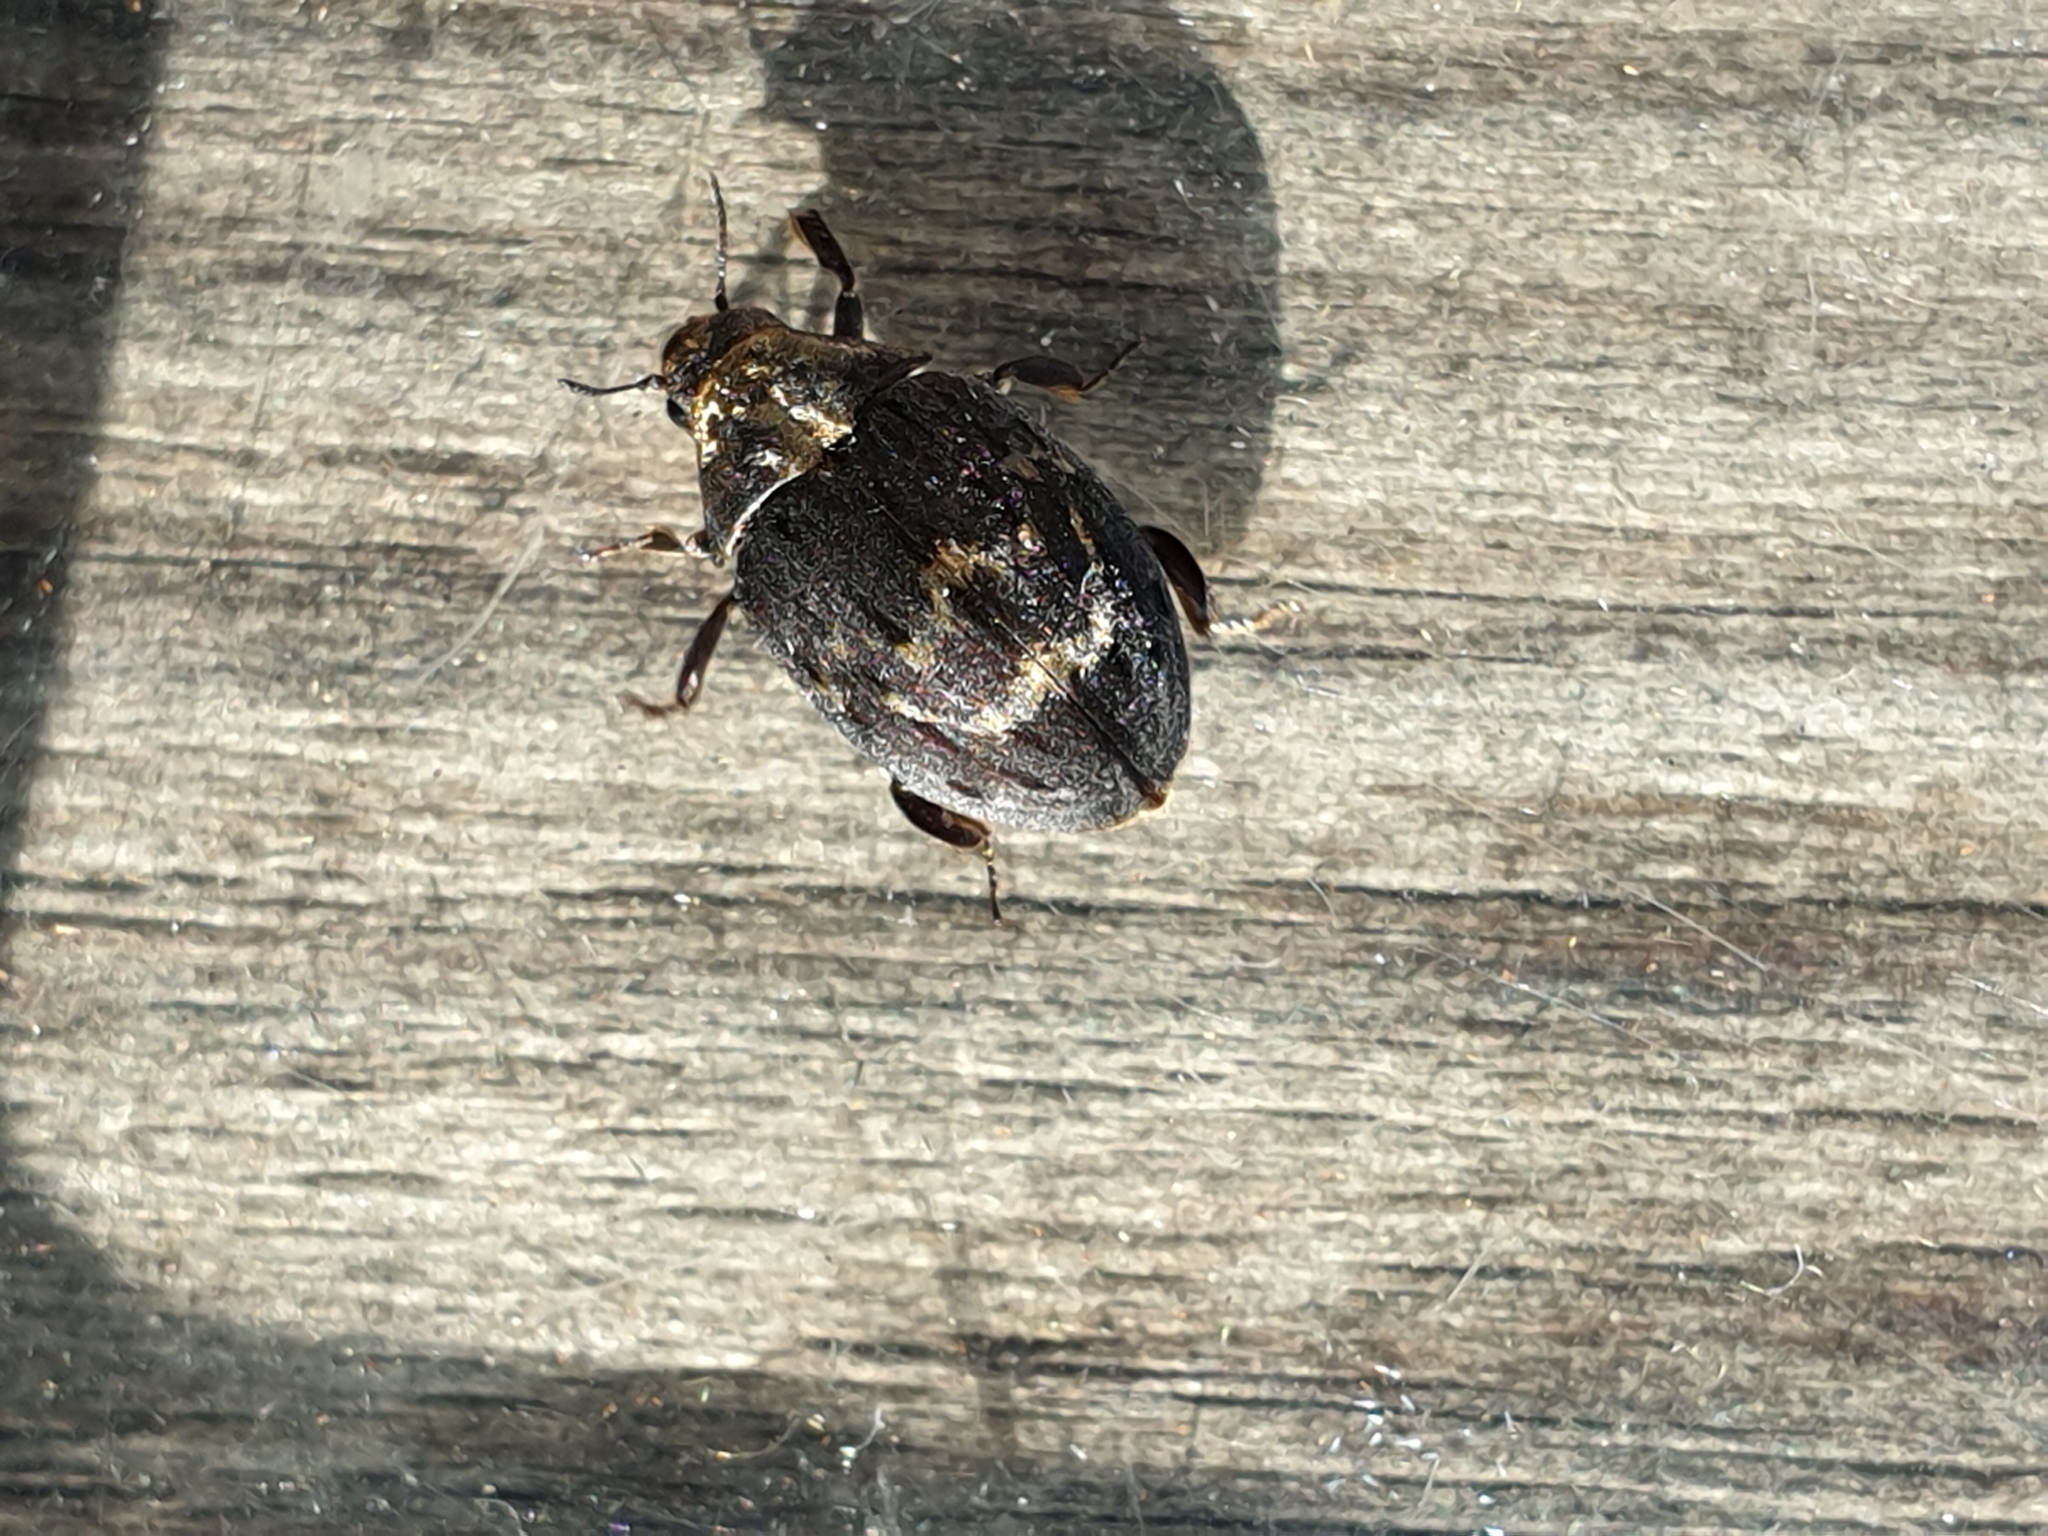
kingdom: Animalia
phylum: Arthropoda
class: Insecta
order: Coleoptera
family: Byrrhidae
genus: Byrrhus
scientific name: Byrrhus fasciatus
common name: Banded pill-beetle
